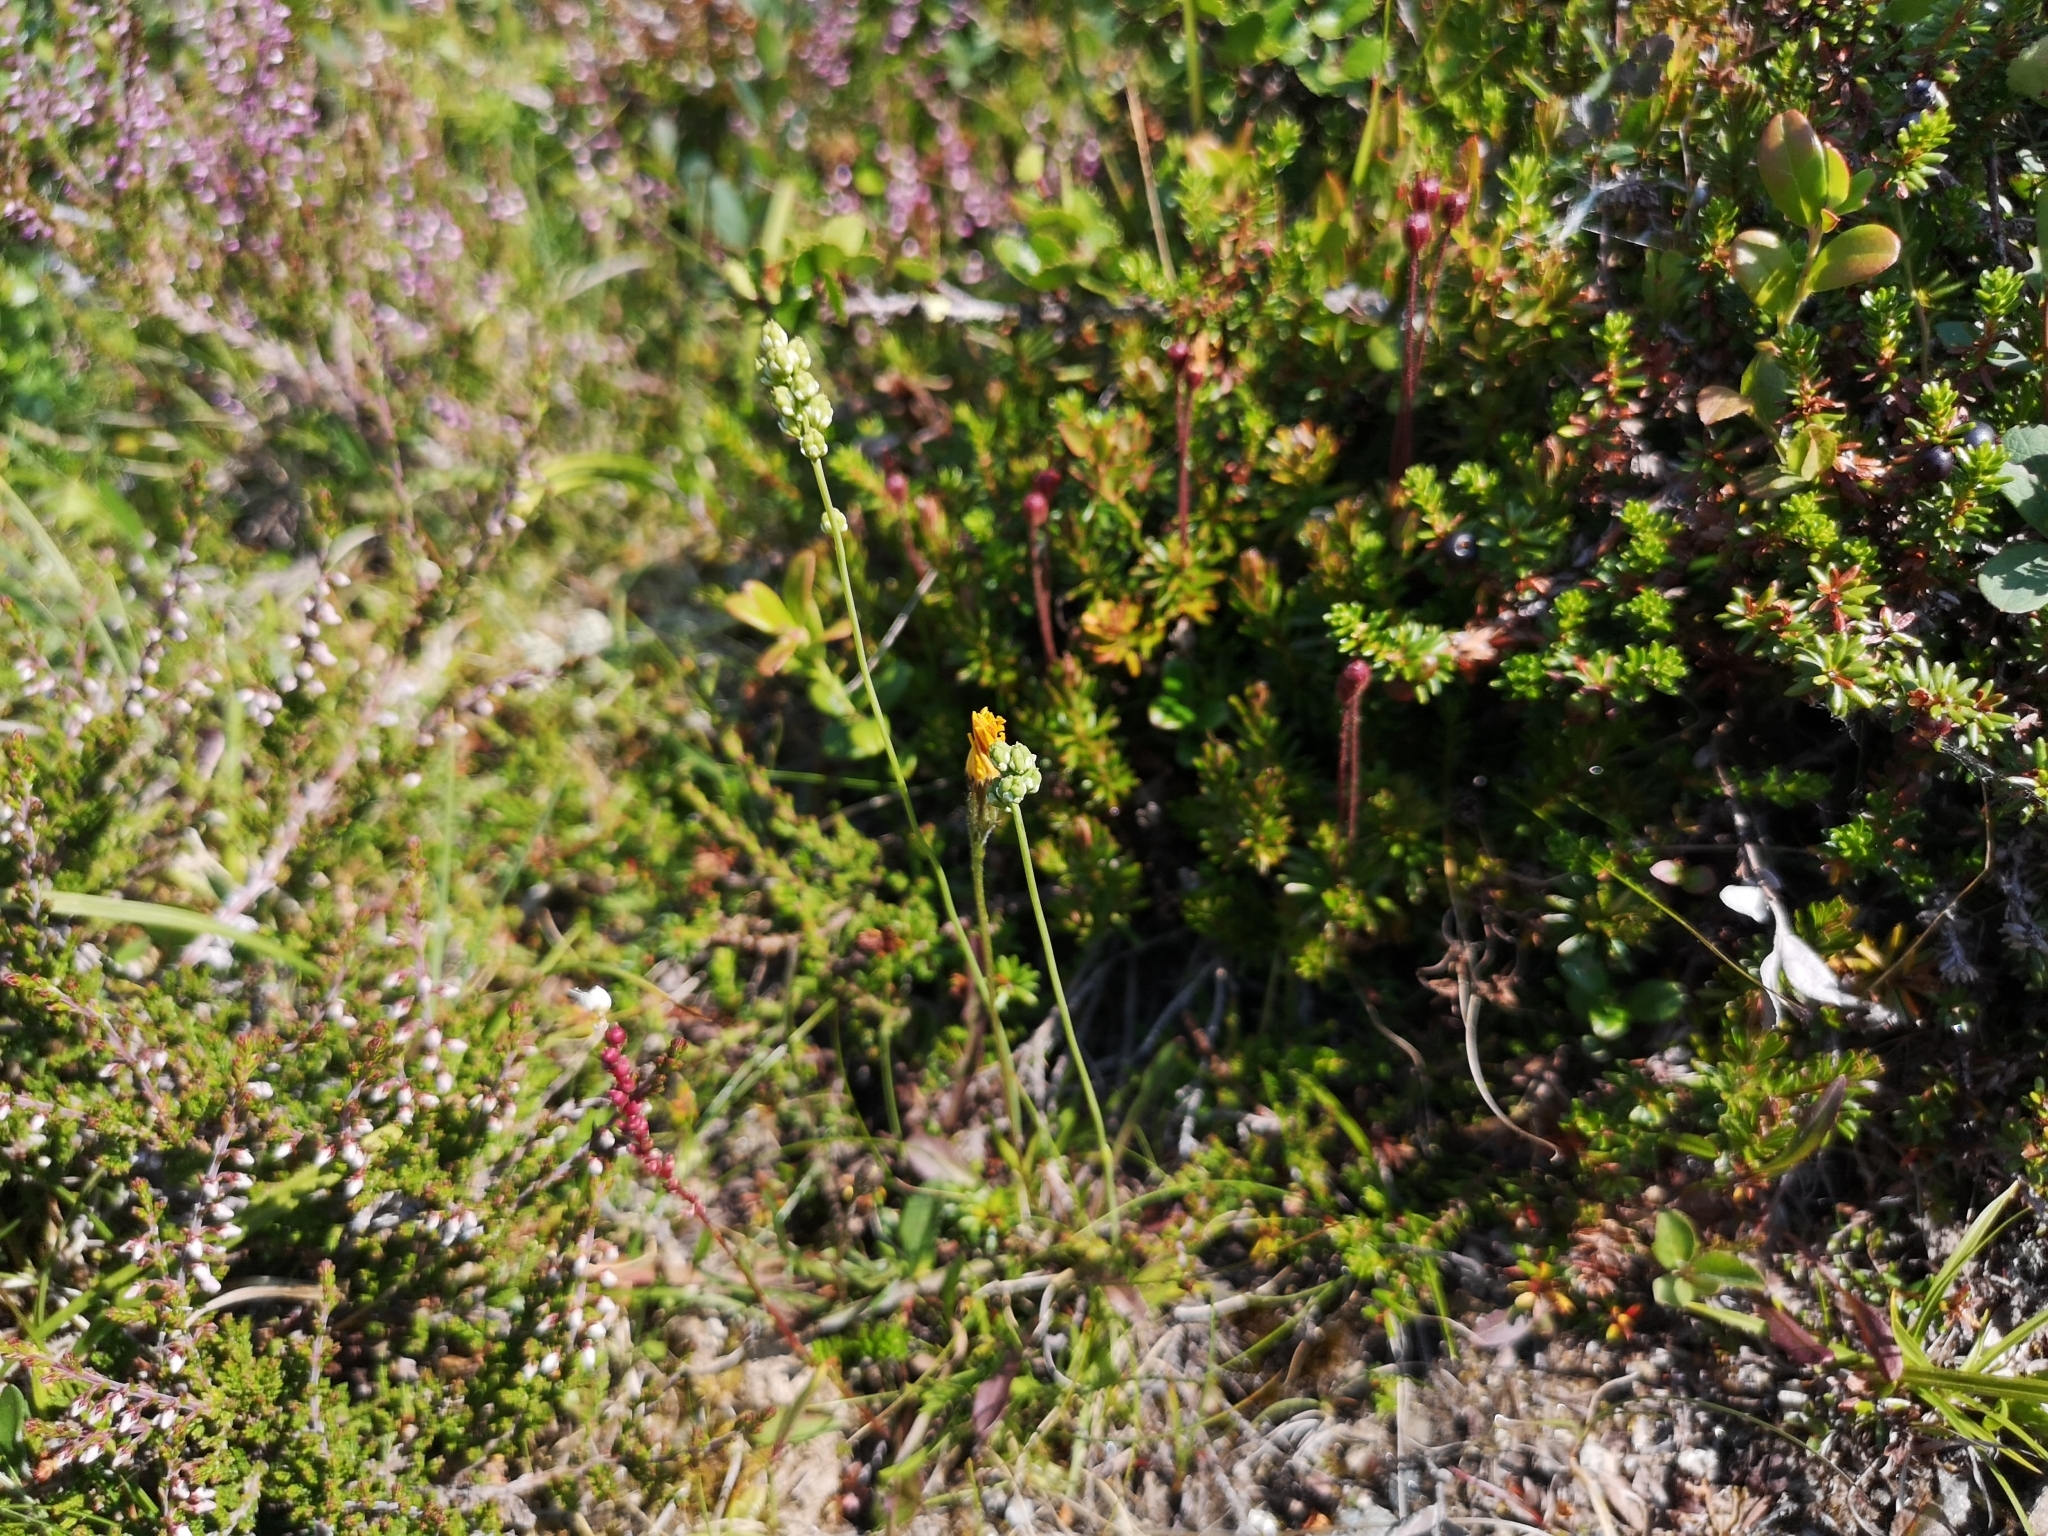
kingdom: Plantae
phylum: Tracheophyta
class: Liliopsida
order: Alismatales
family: Tofieldiaceae
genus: Tofieldia
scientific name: Tofieldia pusilla
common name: Scottish false asphodel
